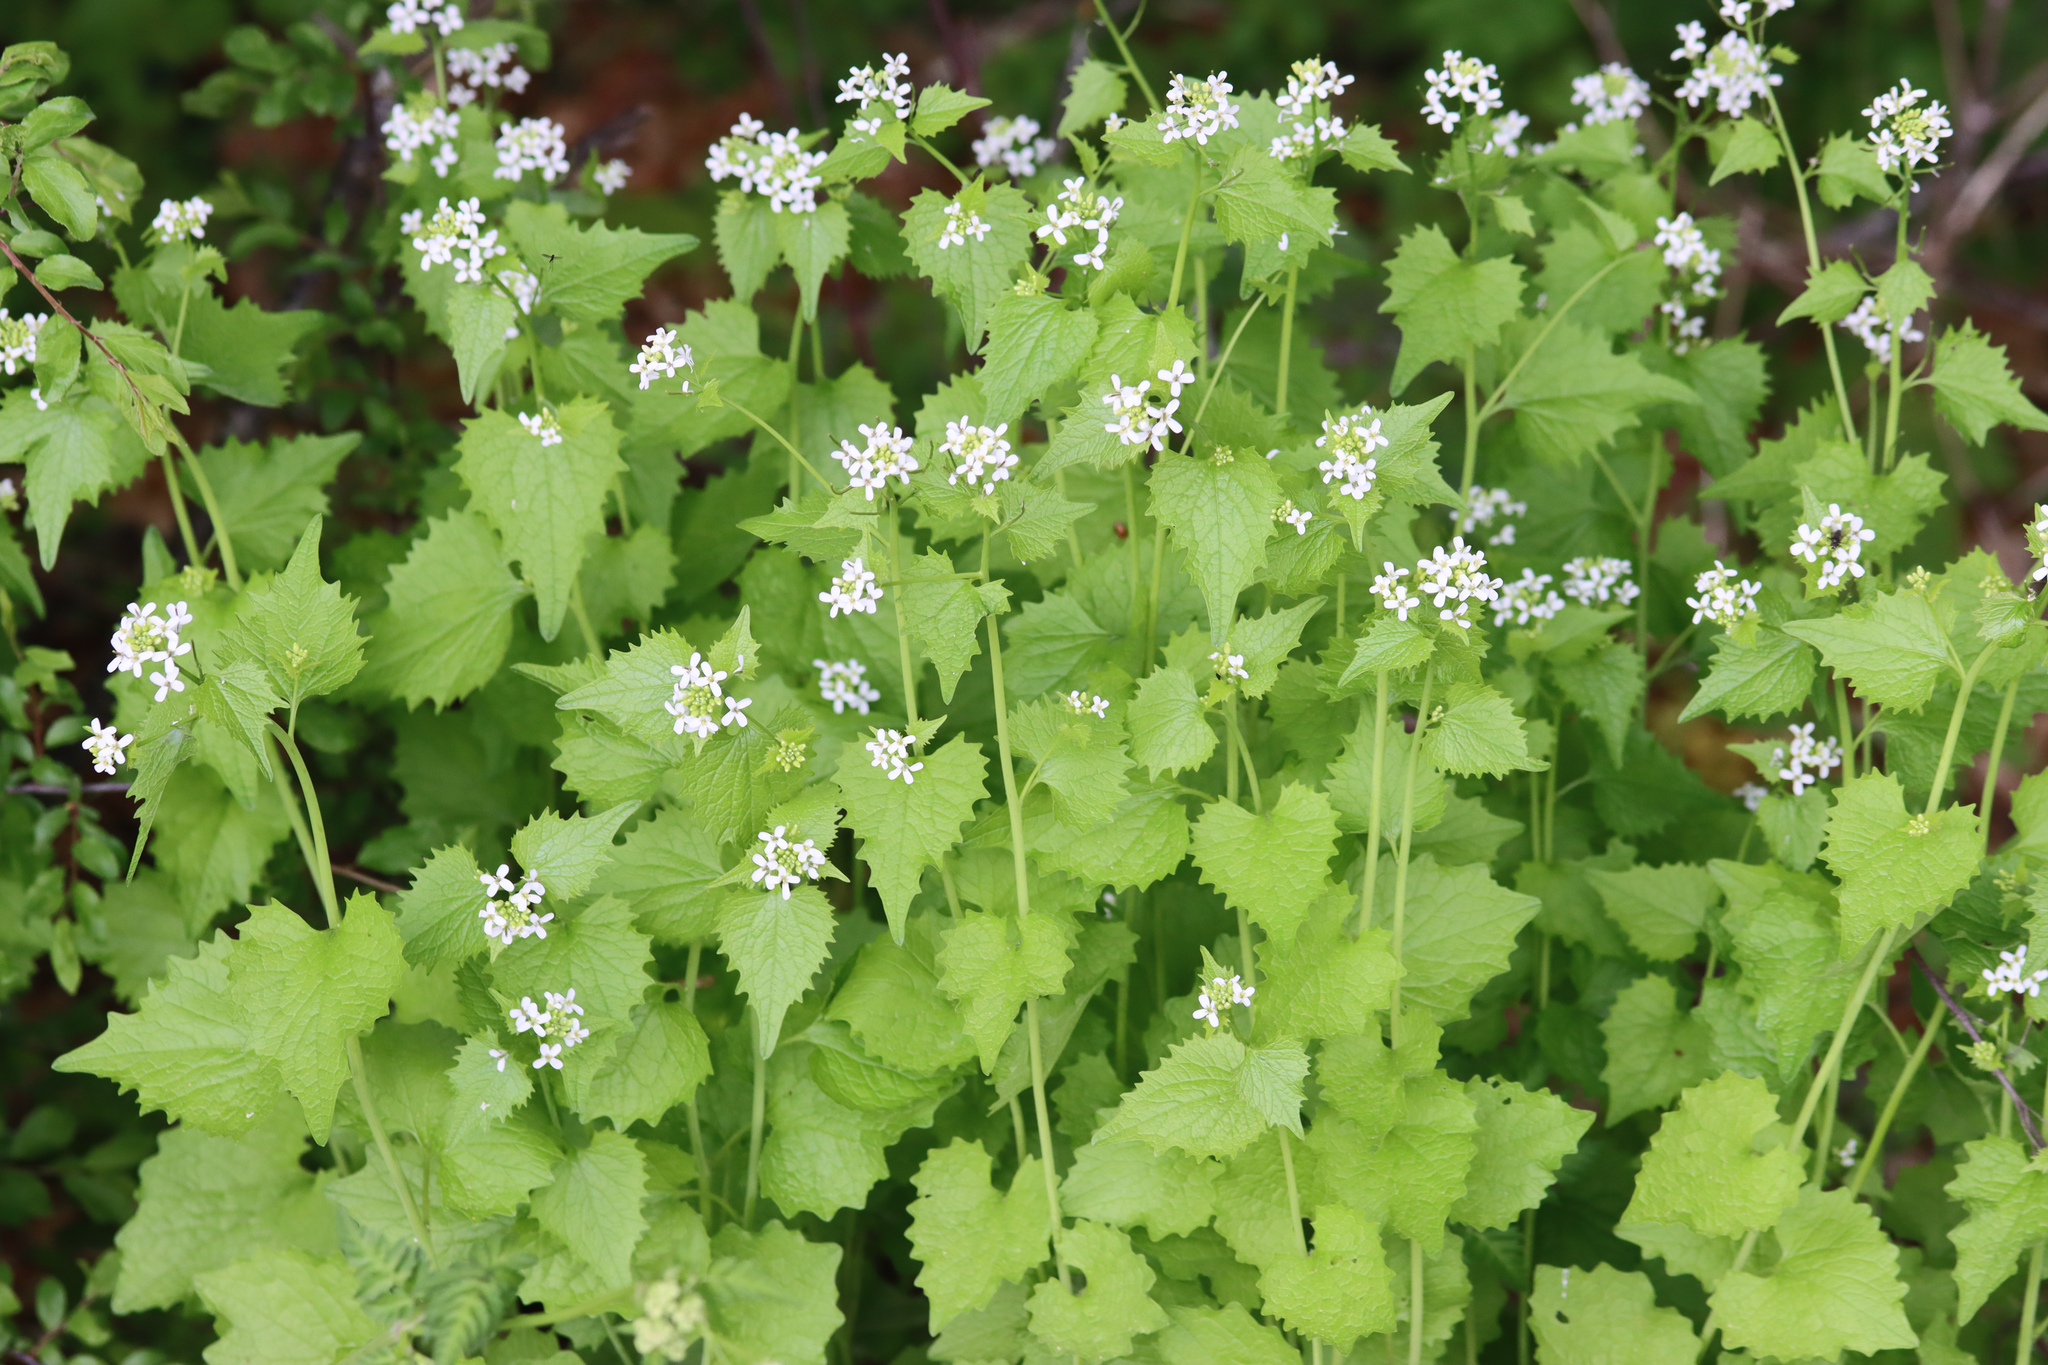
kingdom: Plantae
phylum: Tracheophyta
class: Magnoliopsida
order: Brassicales
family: Brassicaceae
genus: Alliaria
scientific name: Alliaria petiolata
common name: Garlic mustard
